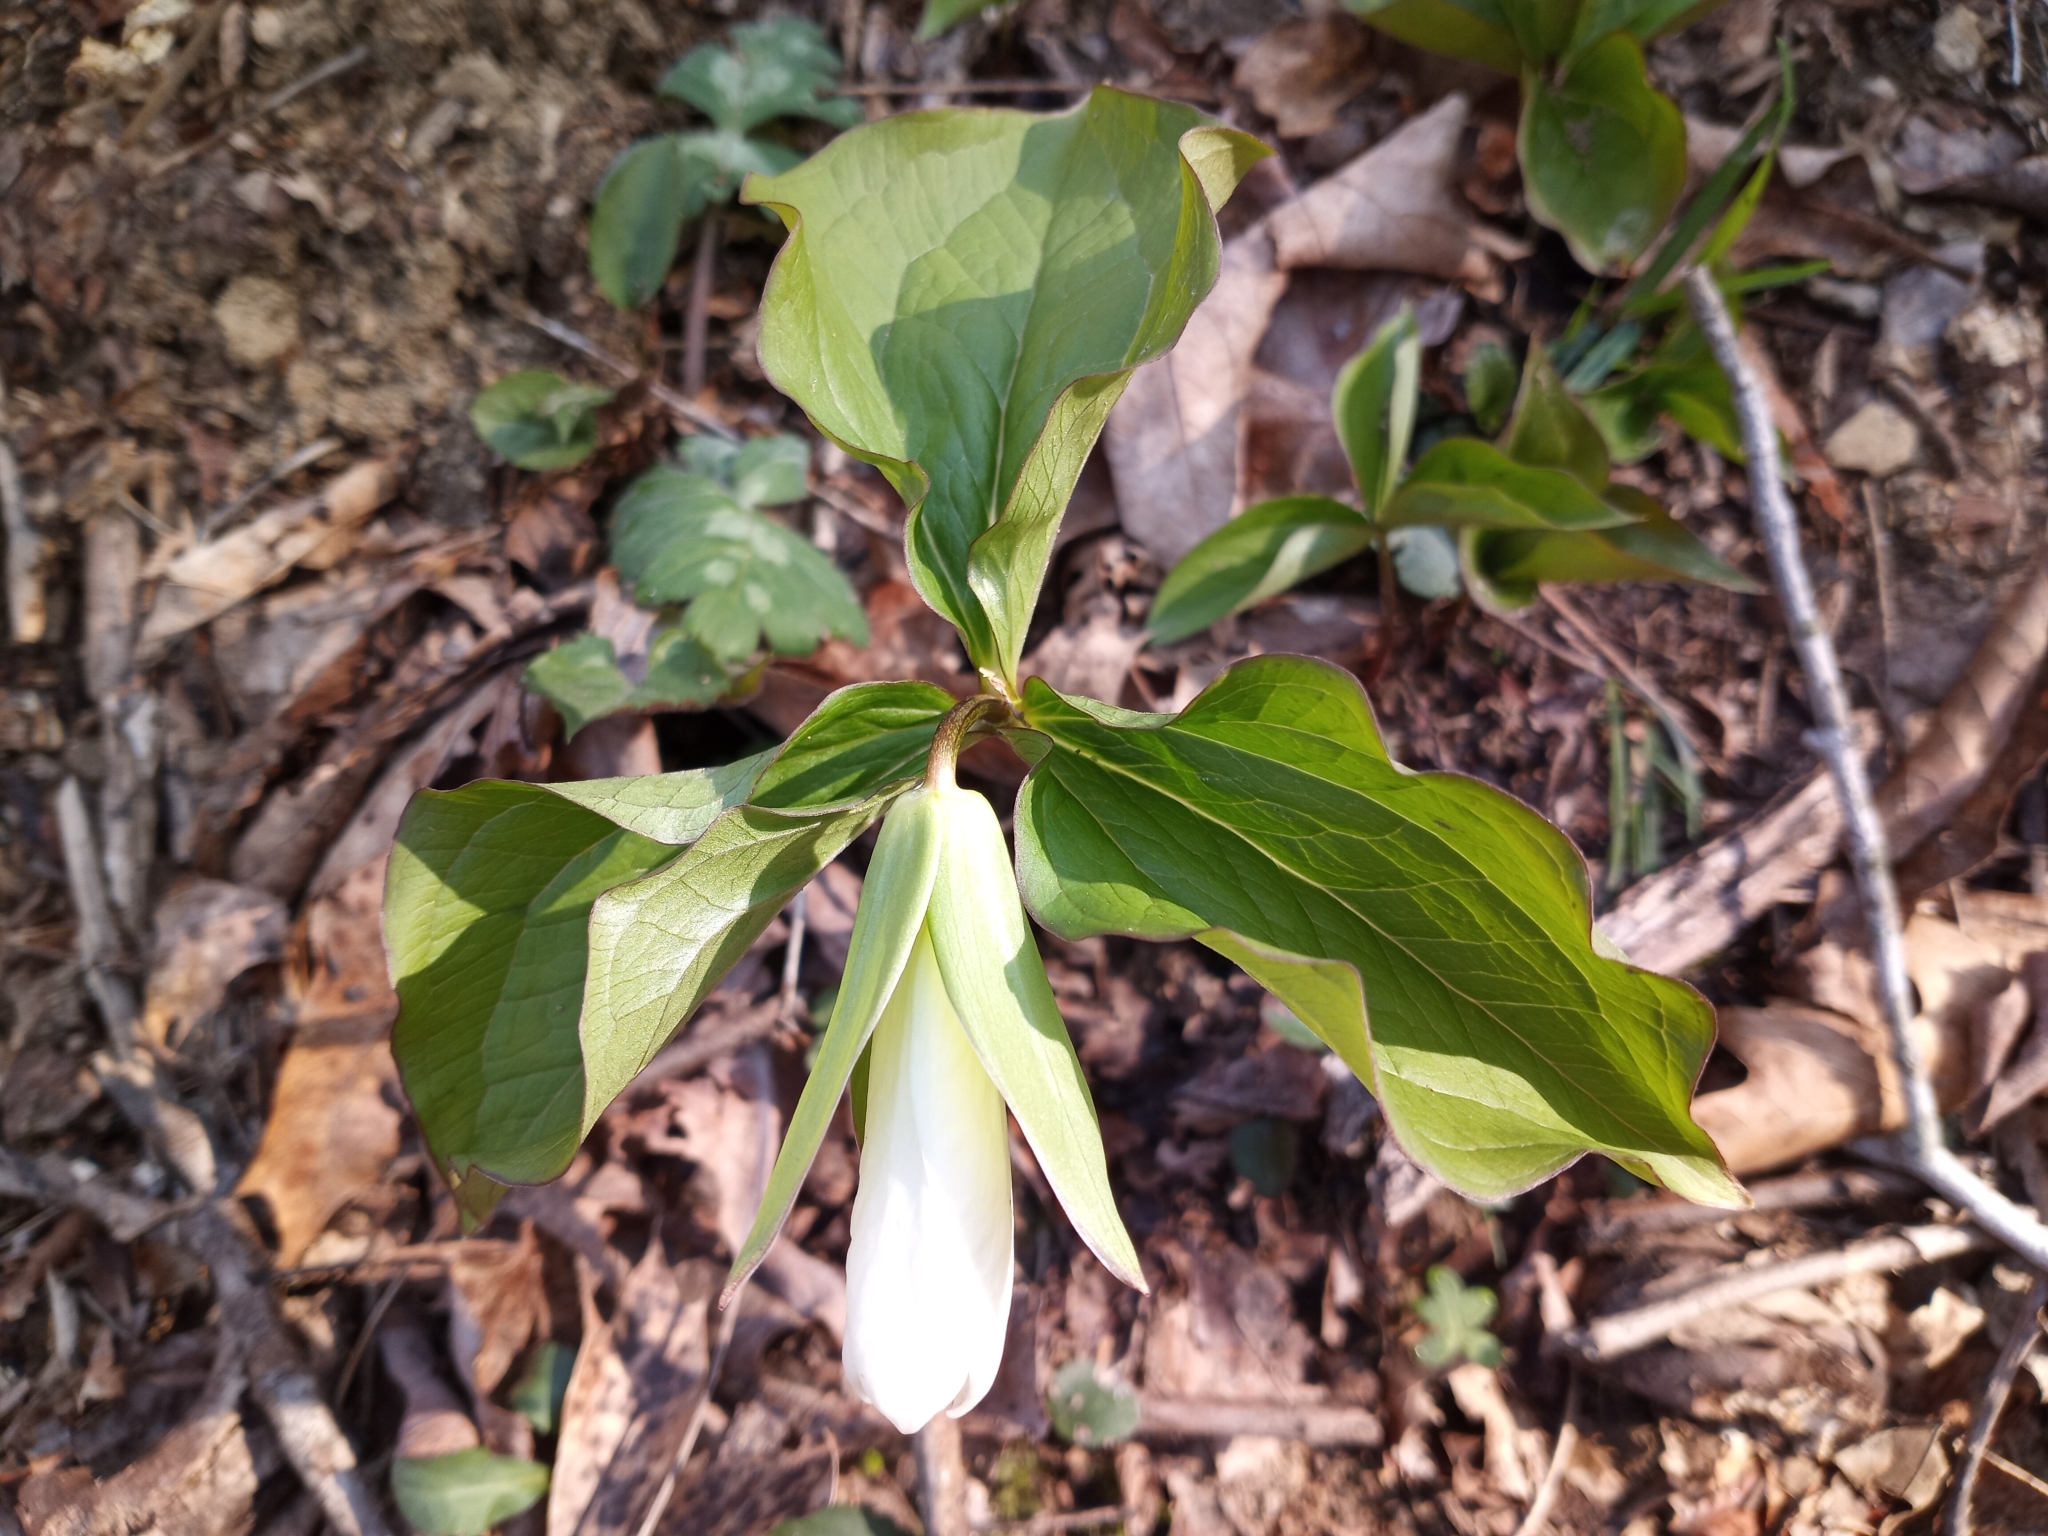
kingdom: Plantae
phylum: Tracheophyta
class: Liliopsida
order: Liliales
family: Melanthiaceae
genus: Trillium
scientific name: Trillium grandiflorum
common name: Great white trillium
